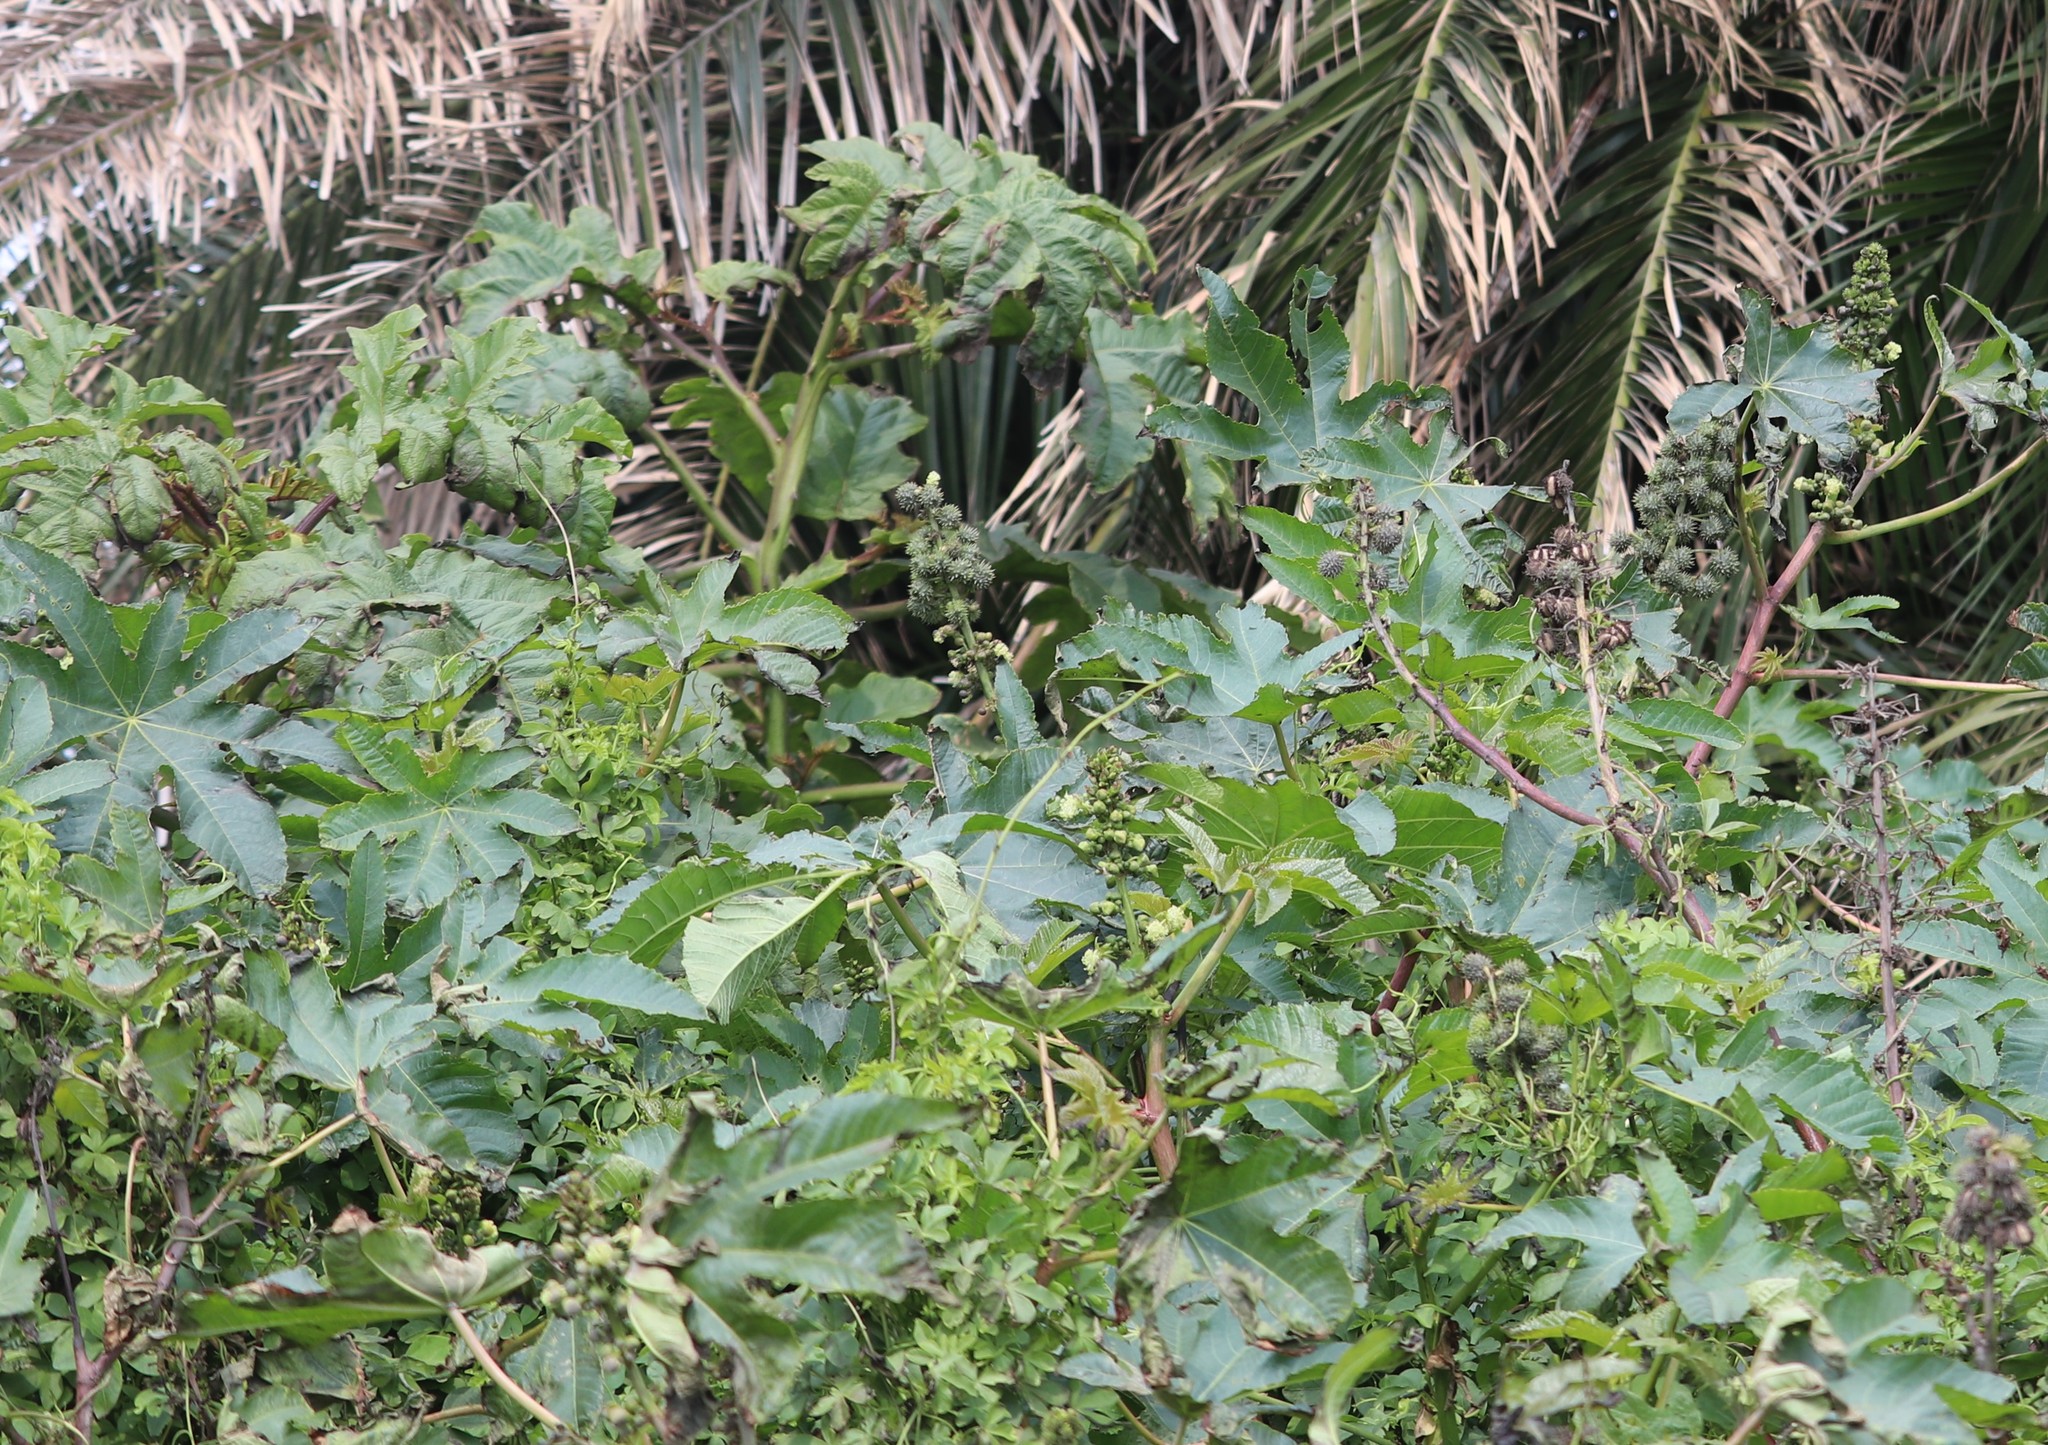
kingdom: Plantae
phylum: Tracheophyta
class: Magnoliopsida
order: Malpighiales
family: Euphorbiaceae
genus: Ricinus
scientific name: Ricinus communis
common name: Castor-oil-plant
